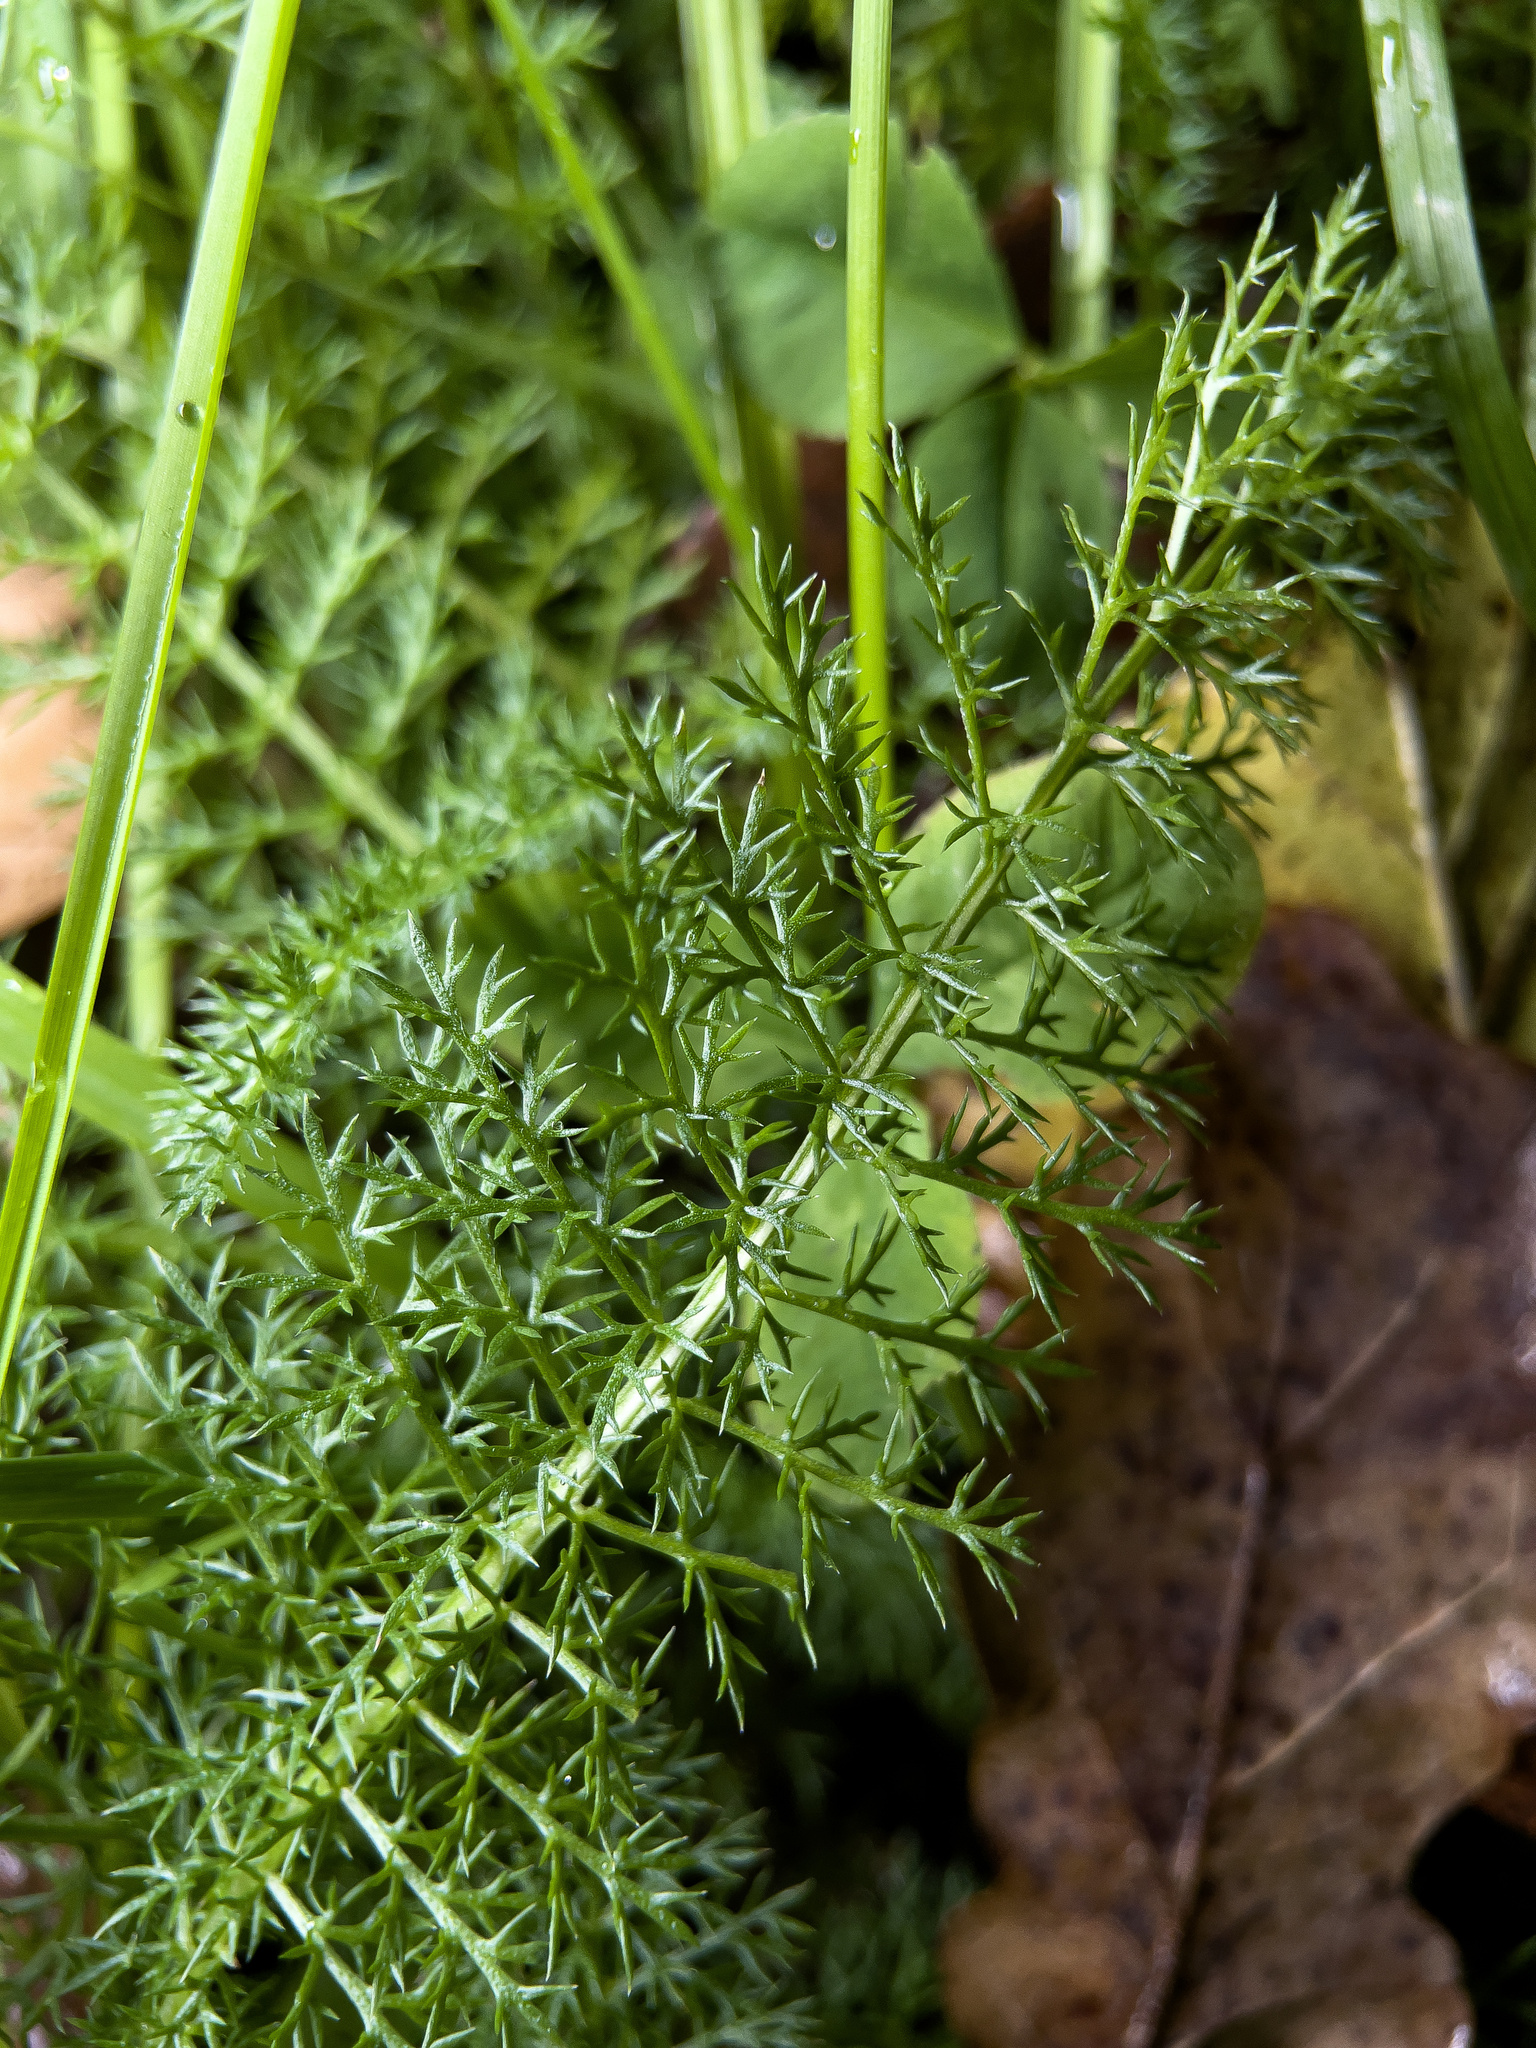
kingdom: Plantae
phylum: Tracheophyta
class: Magnoliopsida
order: Asterales
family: Asteraceae
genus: Achillea
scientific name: Achillea millefolium
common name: Yarrow
